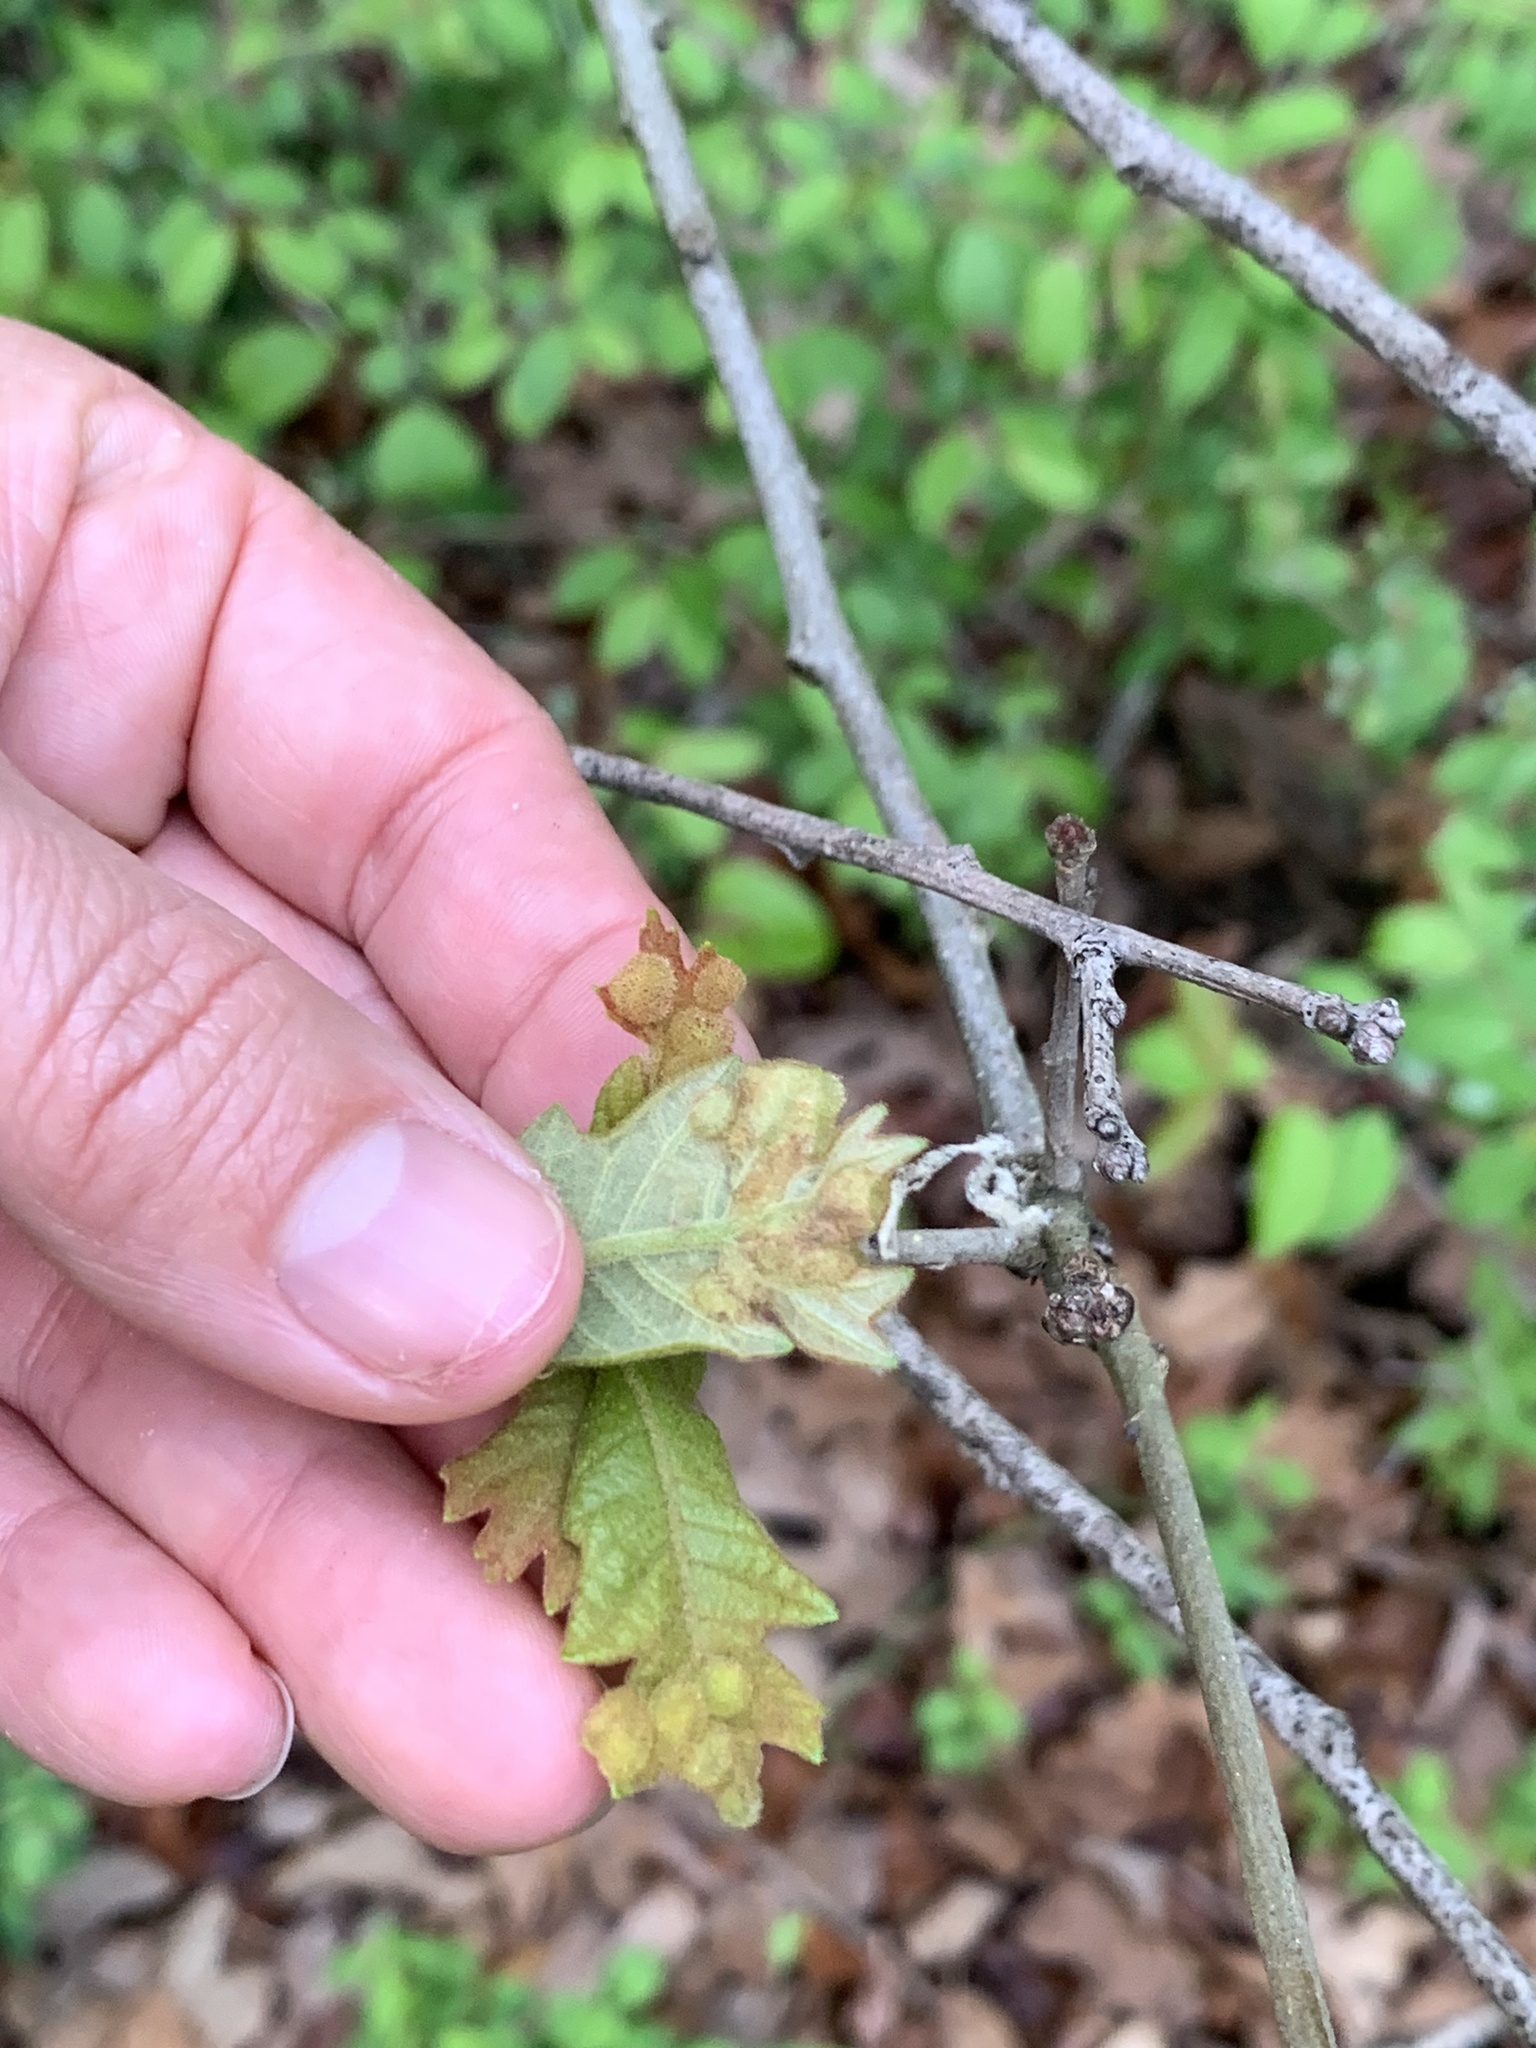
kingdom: Animalia
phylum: Arthropoda
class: Insecta
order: Hymenoptera
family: Cynipidae
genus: Neuroterus
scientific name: Neuroterus quercusirregularis
